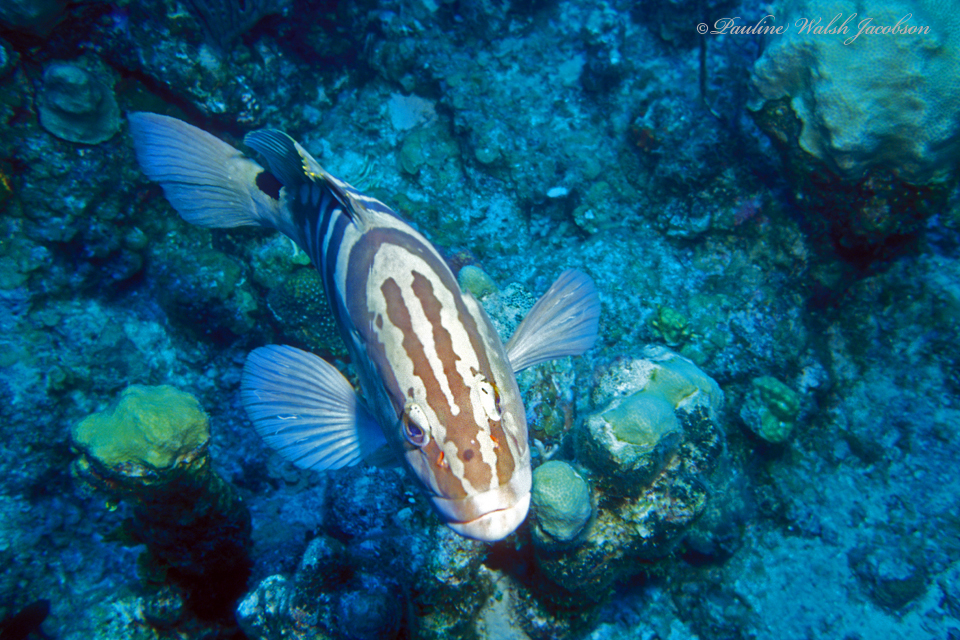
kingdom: Animalia
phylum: Chordata
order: Perciformes
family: Serranidae
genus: Epinephelus
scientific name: Epinephelus striatus
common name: Nassau grouper
